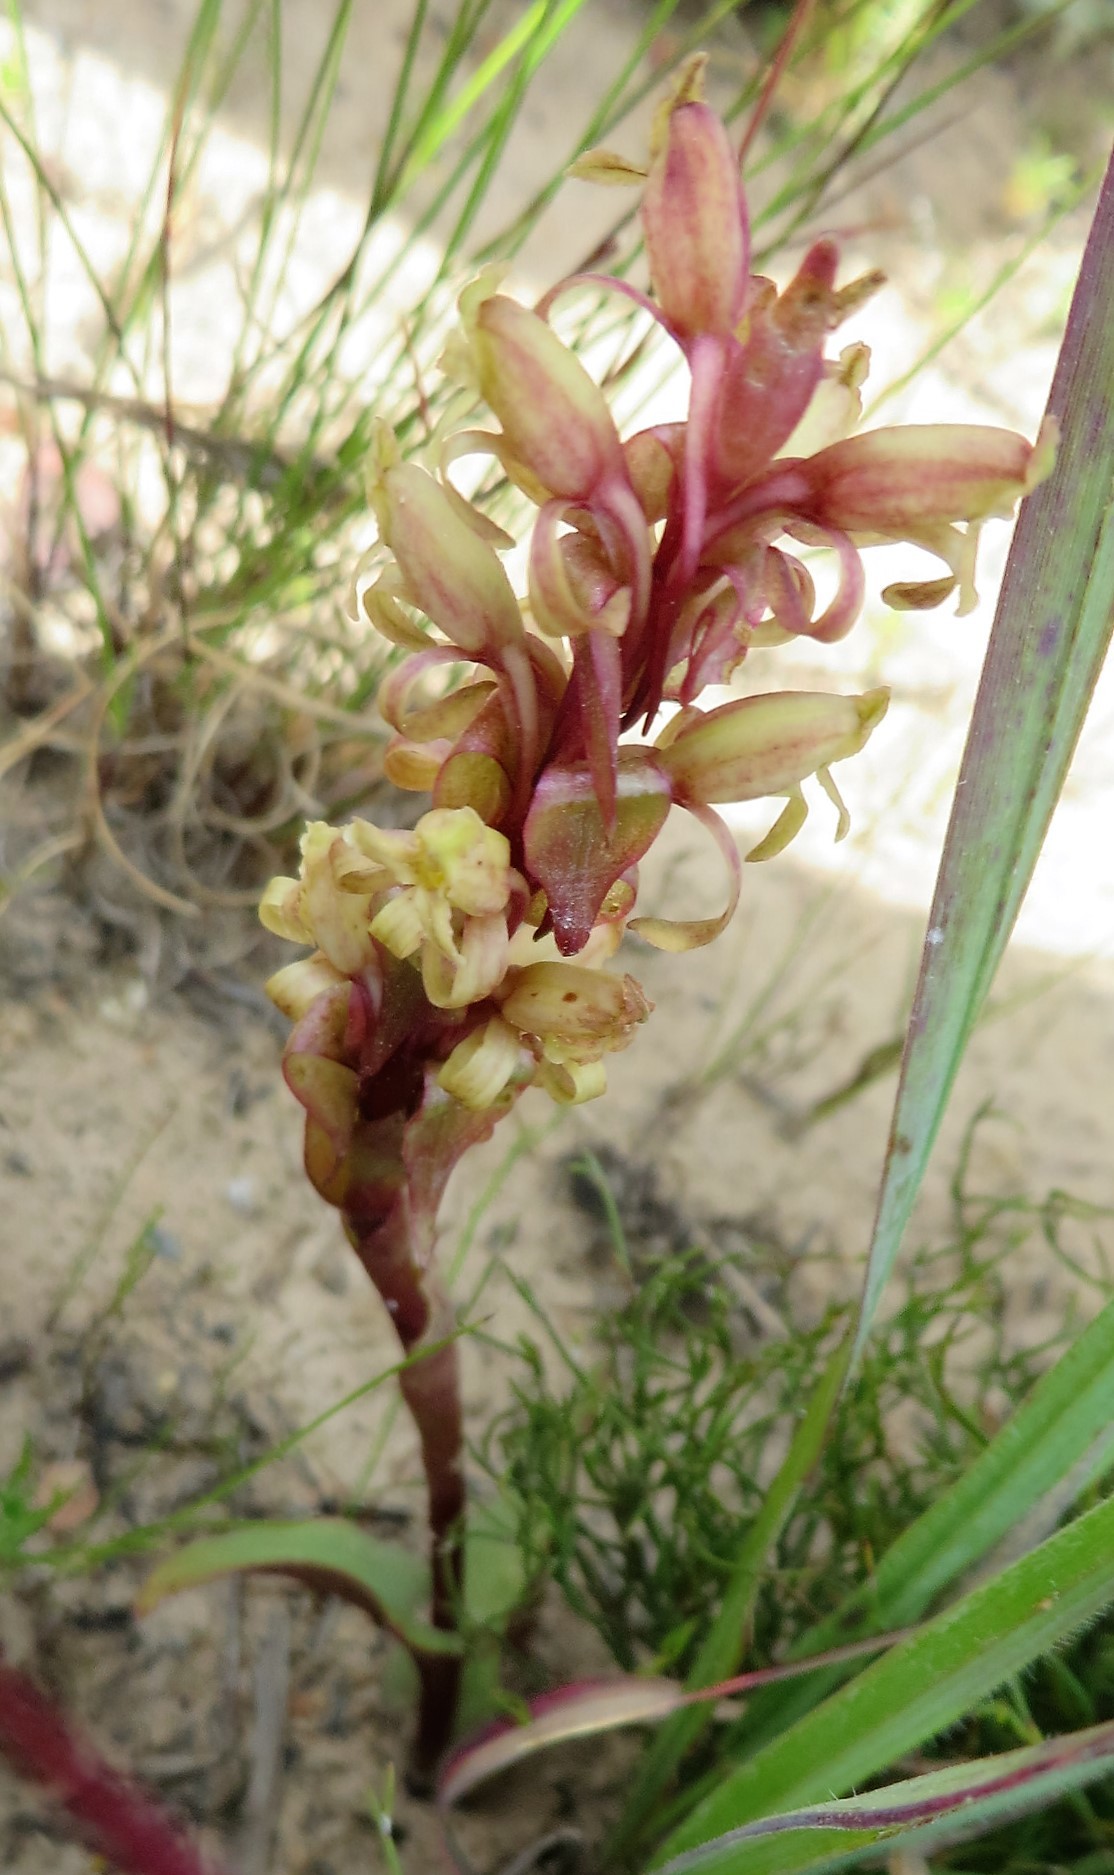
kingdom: Plantae
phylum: Tracheophyta
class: Liliopsida
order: Asparagales
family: Orchidaceae
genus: Satyrium
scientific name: Satyrium lupulinum
